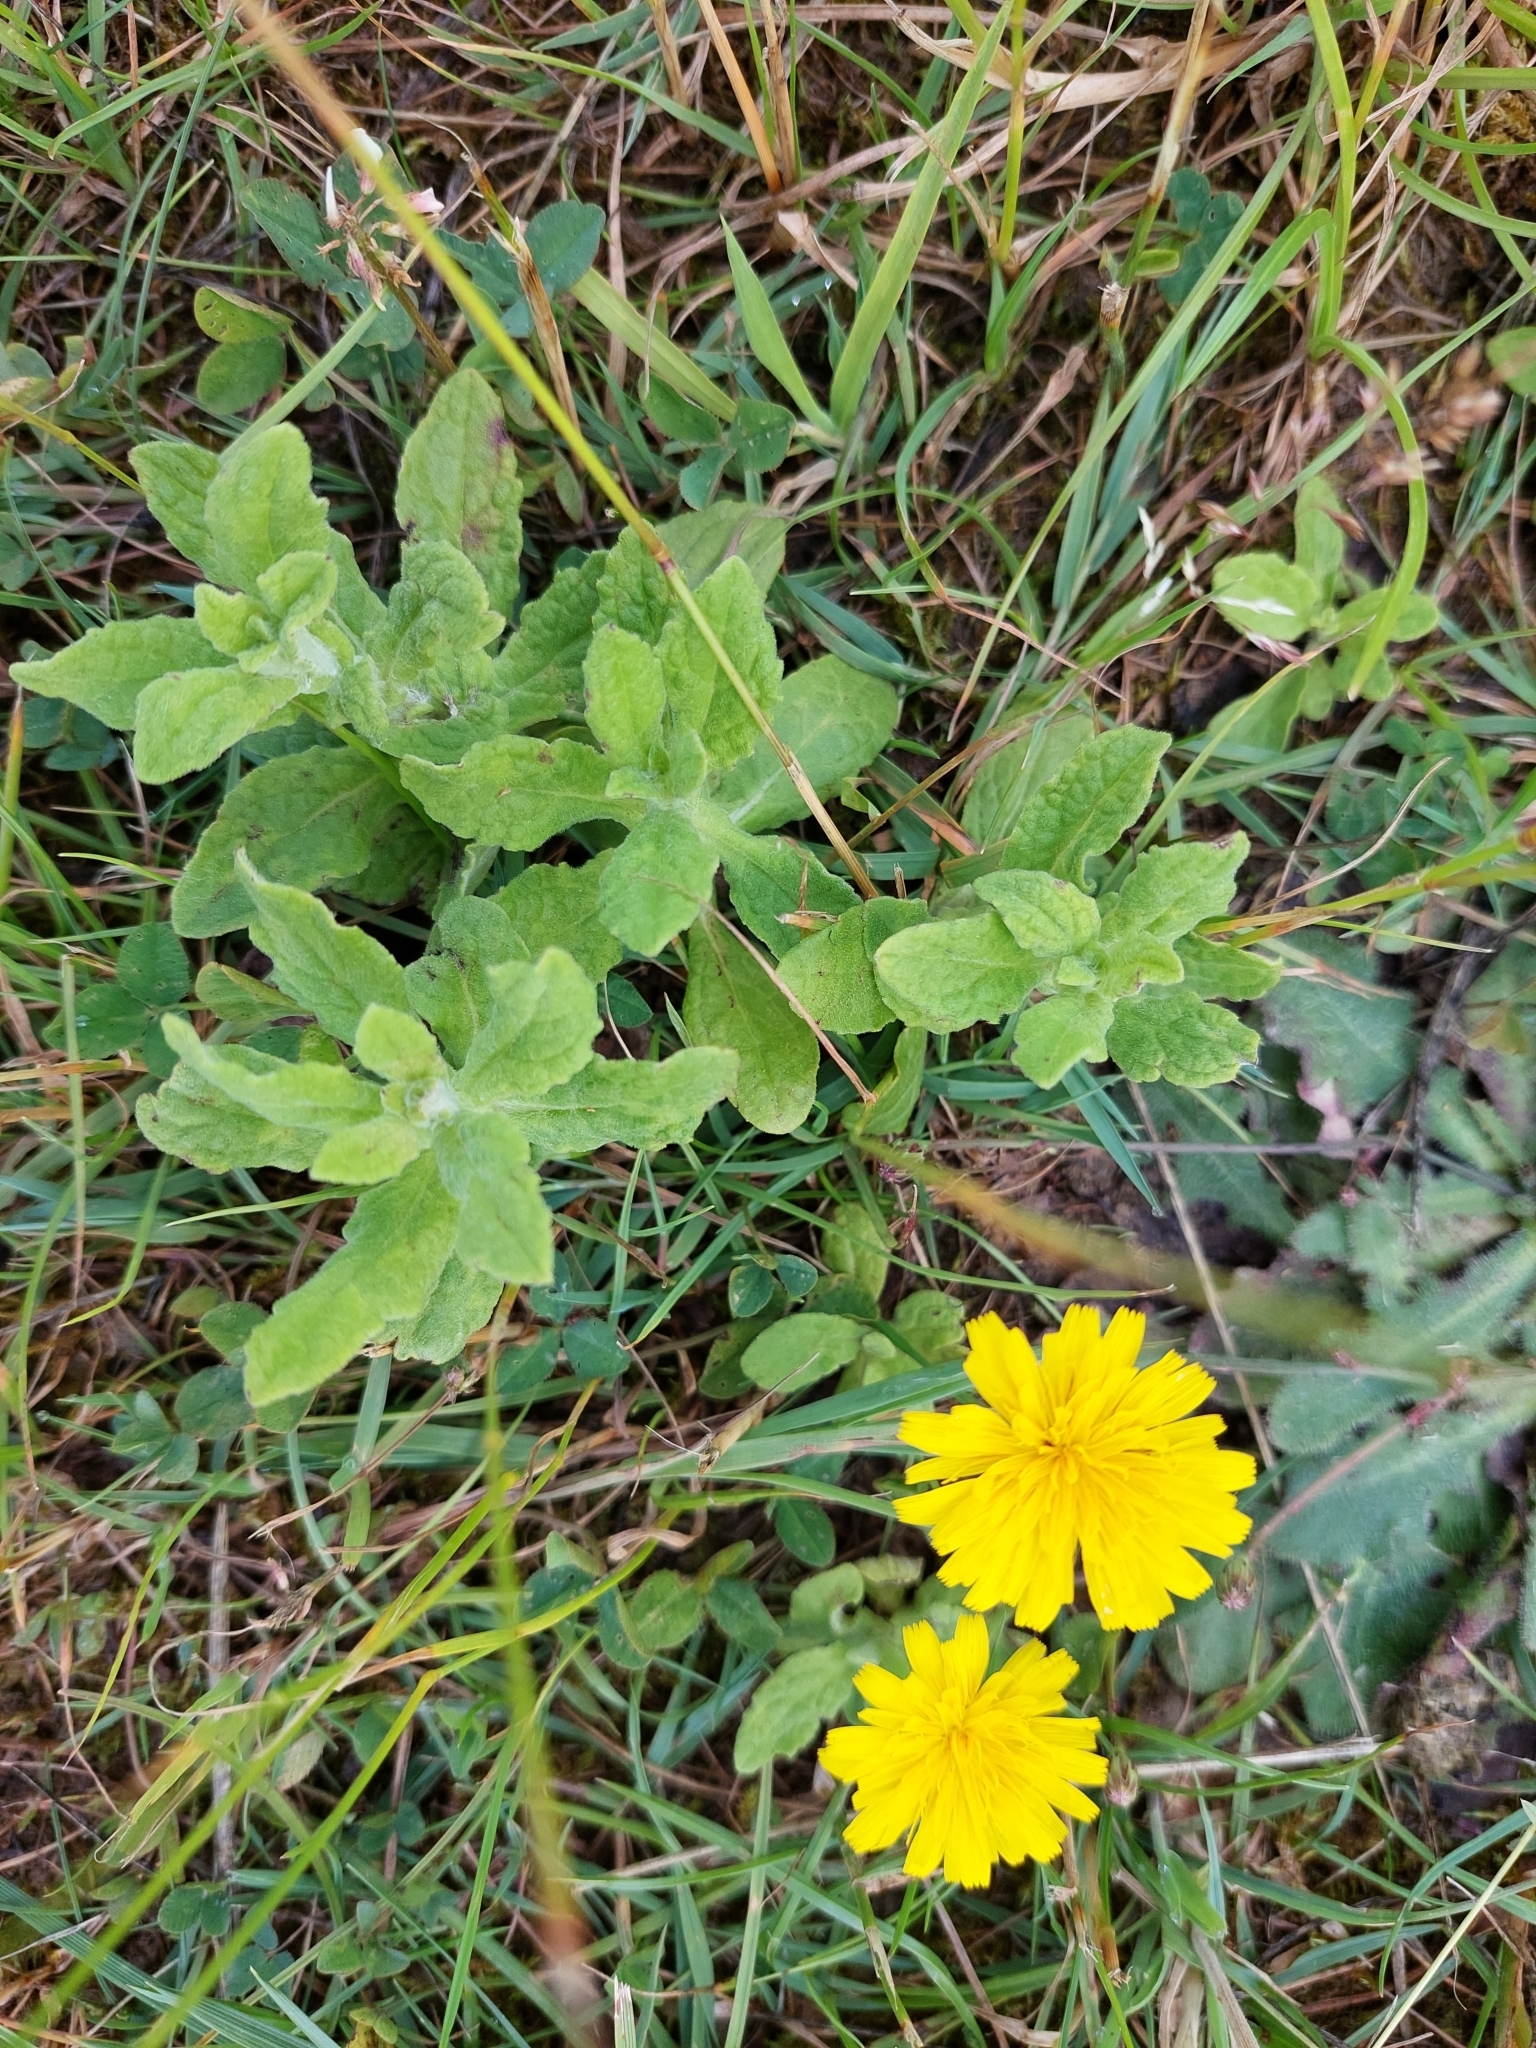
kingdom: Plantae
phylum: Tracheophyta
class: Magnoliopsida
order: Asterales
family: Asteraceae
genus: Pulicaria
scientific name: Pulicaria dysenterica
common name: Common fleabane
